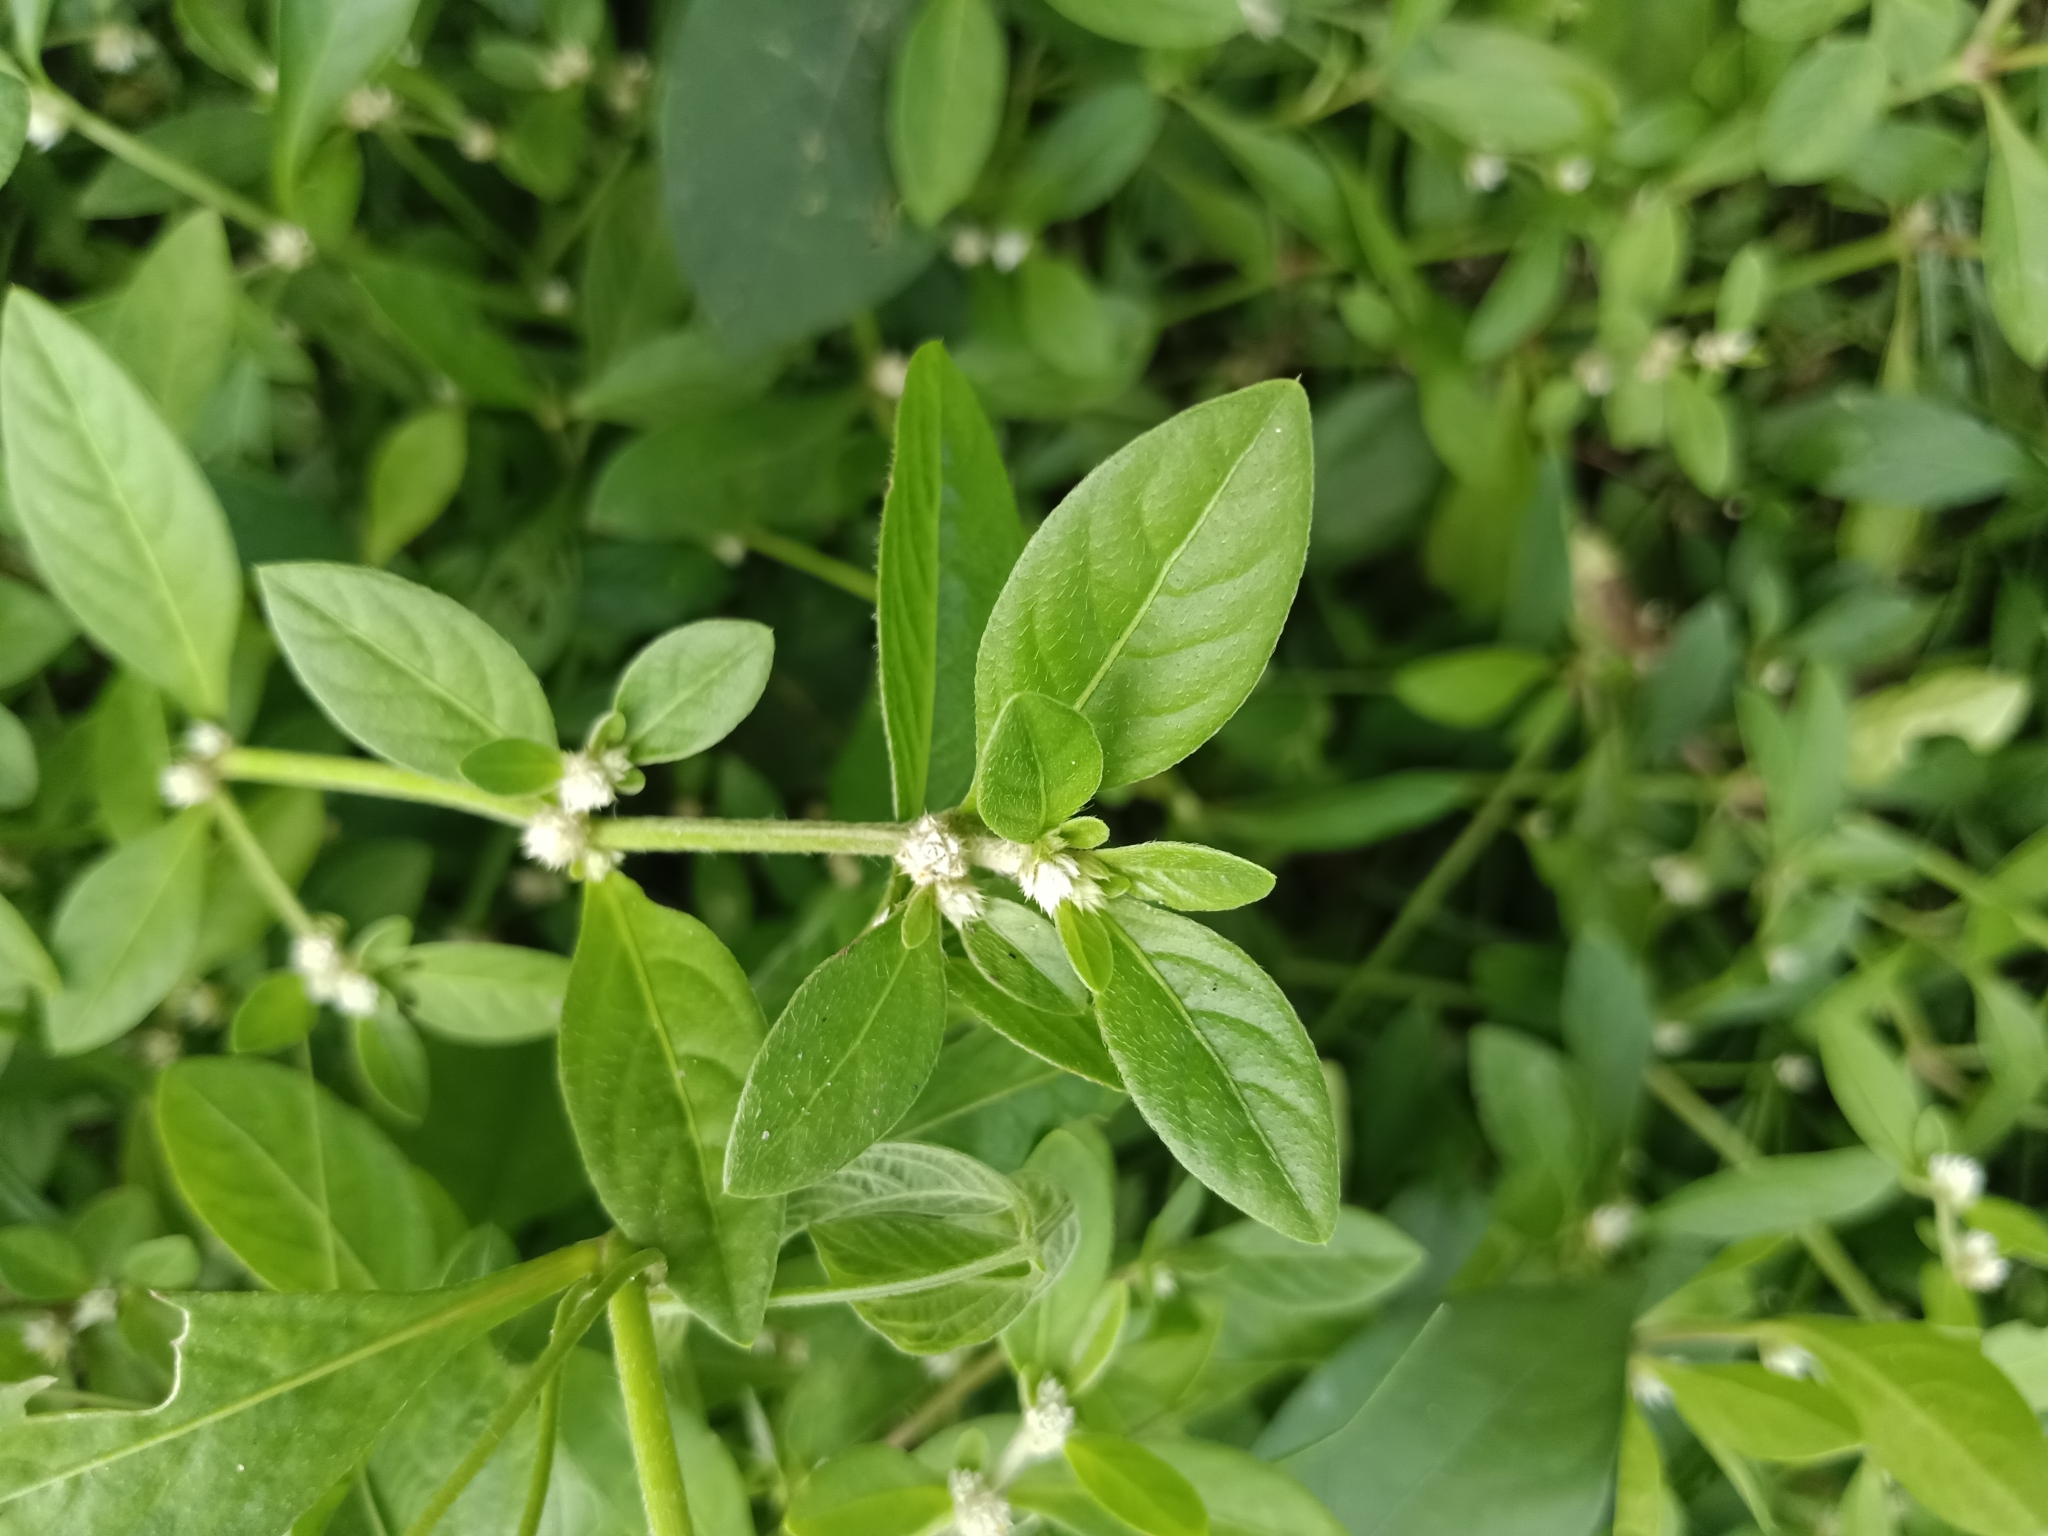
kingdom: Plantae
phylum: Tracheophyta
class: Magnoliopsida
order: Caryophyllales
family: Amaranthaceae
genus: Alternanthera
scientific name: Alternanthera ficoidea
